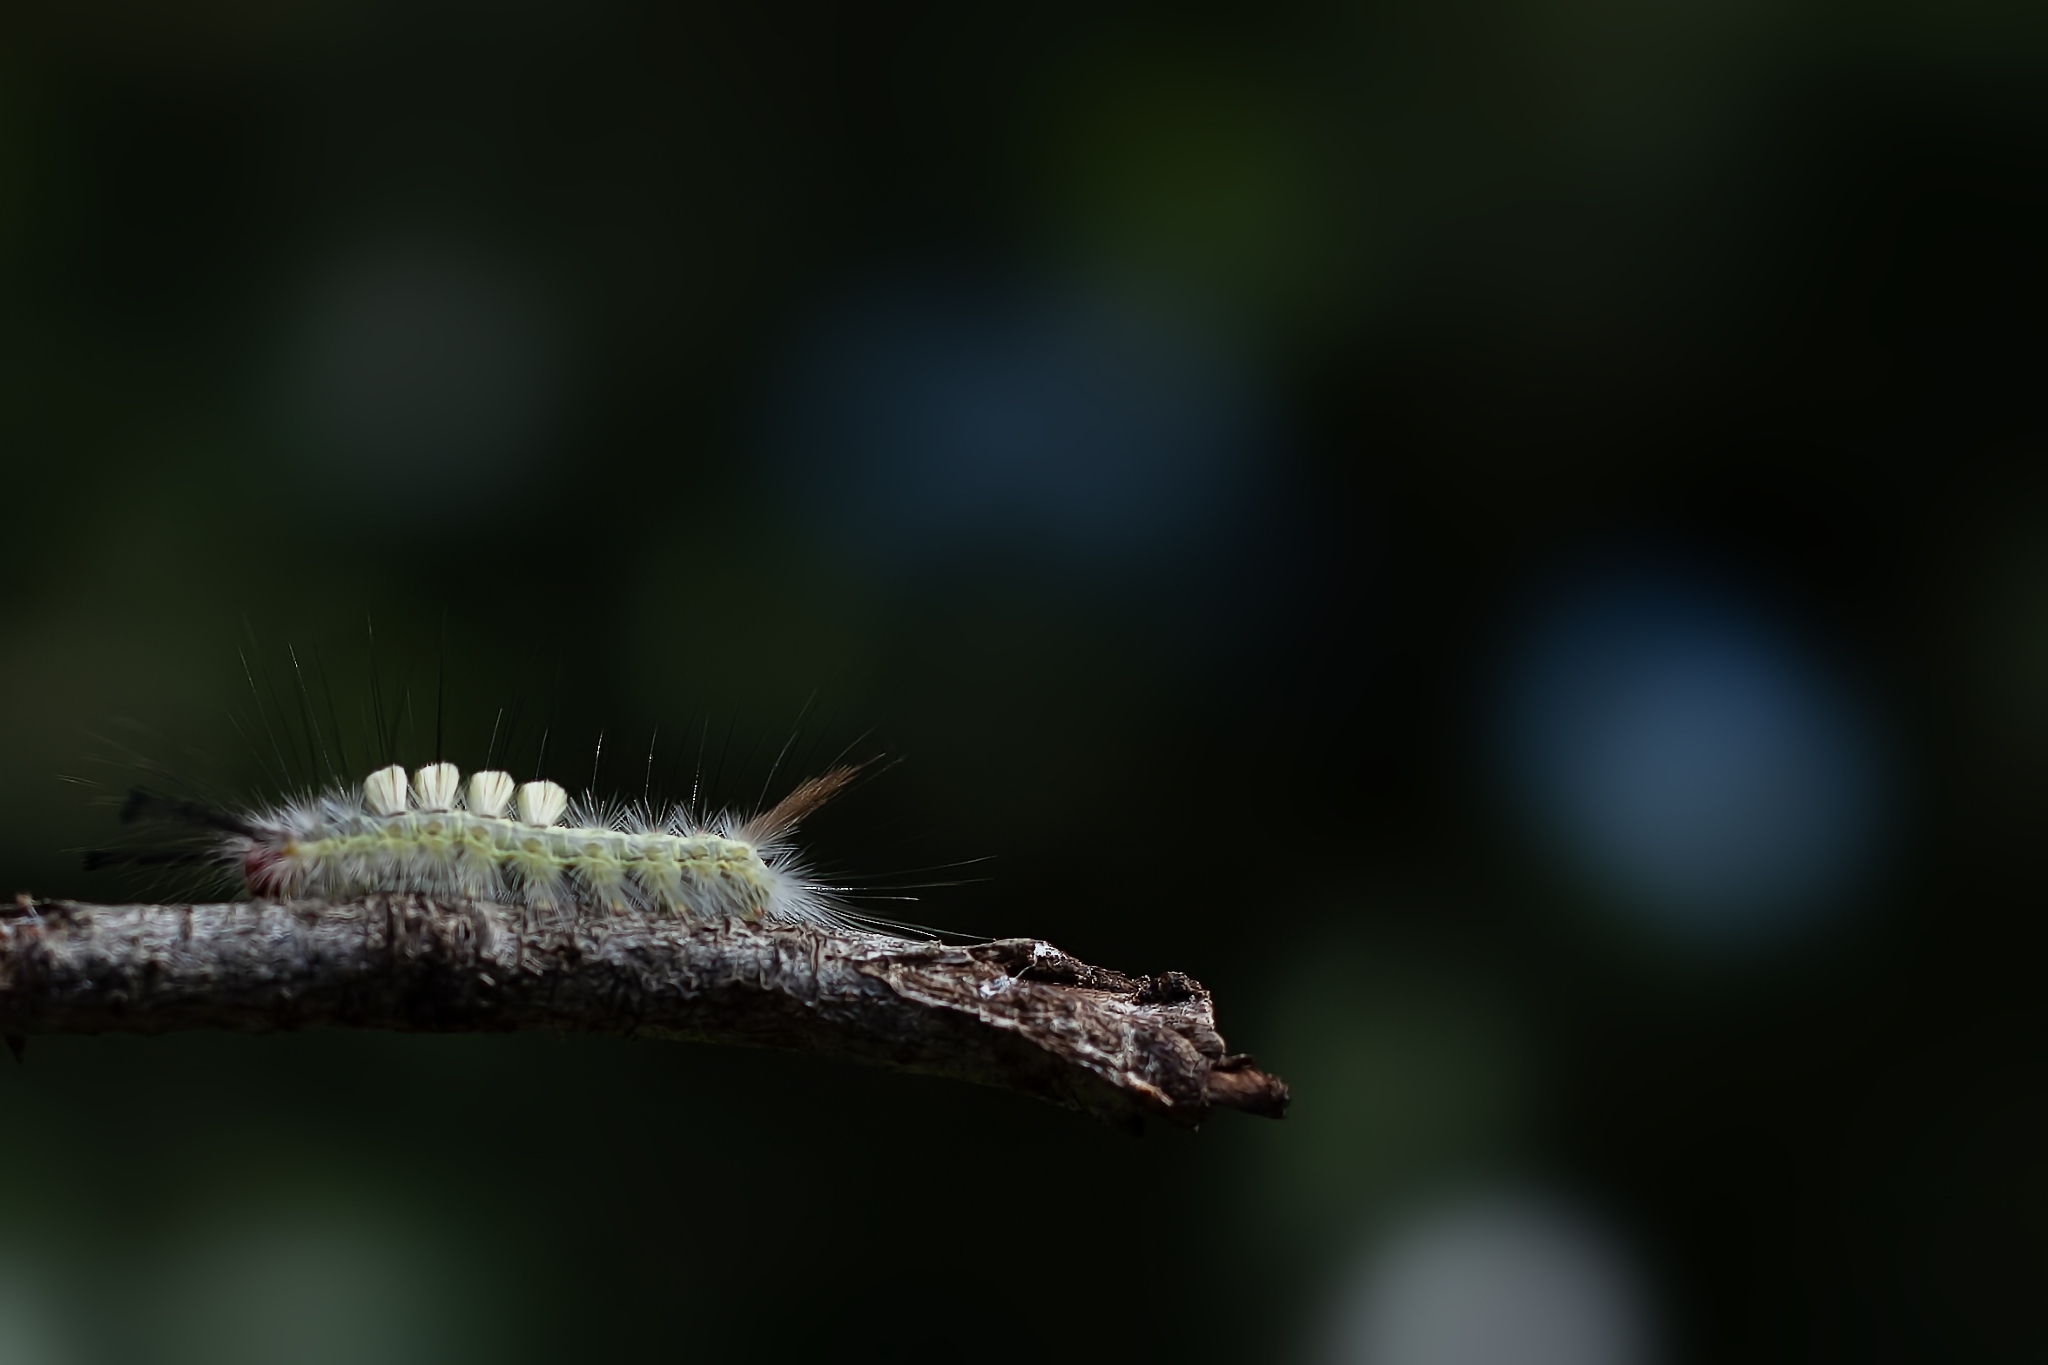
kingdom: Animalia
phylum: Arthropoda
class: Insecta
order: Lepidoptera
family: Erebidae
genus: Orgyia
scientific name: Orgyia leucostigma
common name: White-marked tussock moth
